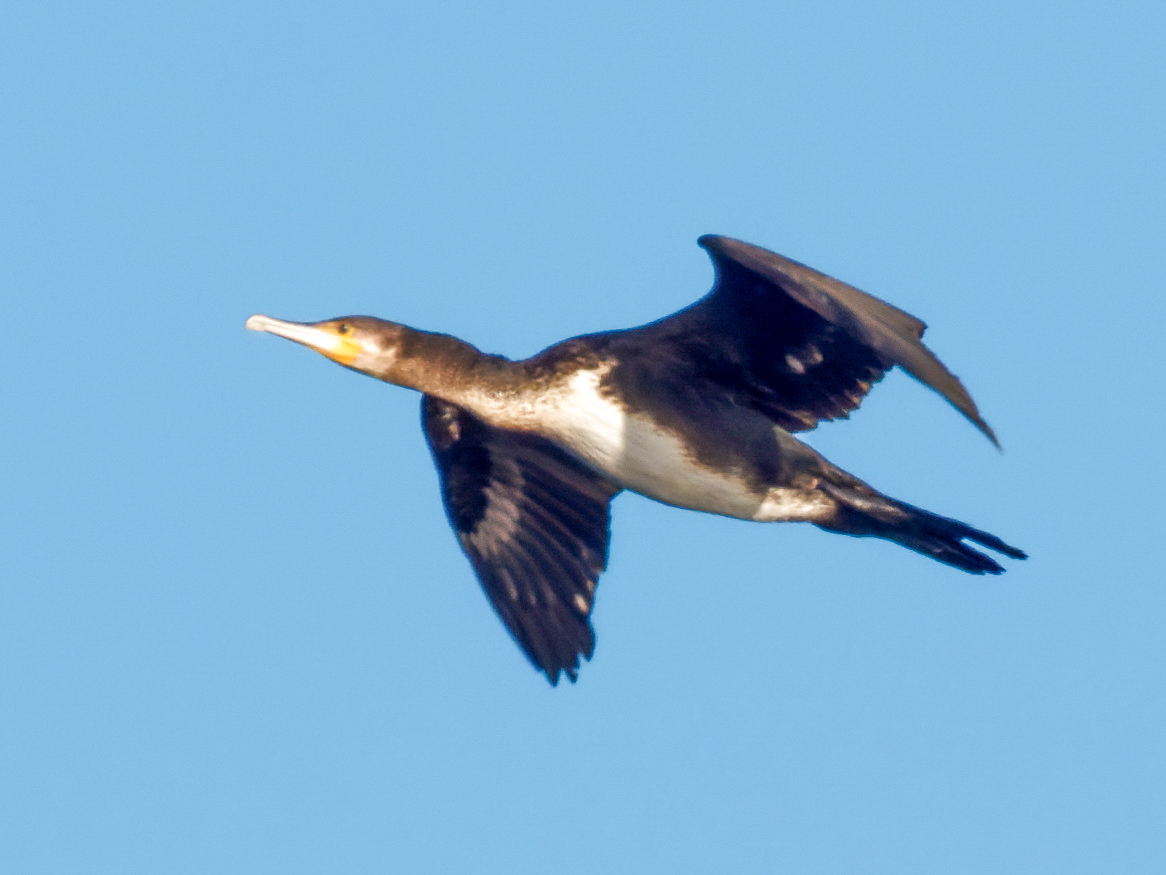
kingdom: Animalia
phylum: Chordata
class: Aves
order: Suliformes
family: Phalacrocoracidae
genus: Phalacrocorax
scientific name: Phalacrocorax carbo
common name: Great cormorant
